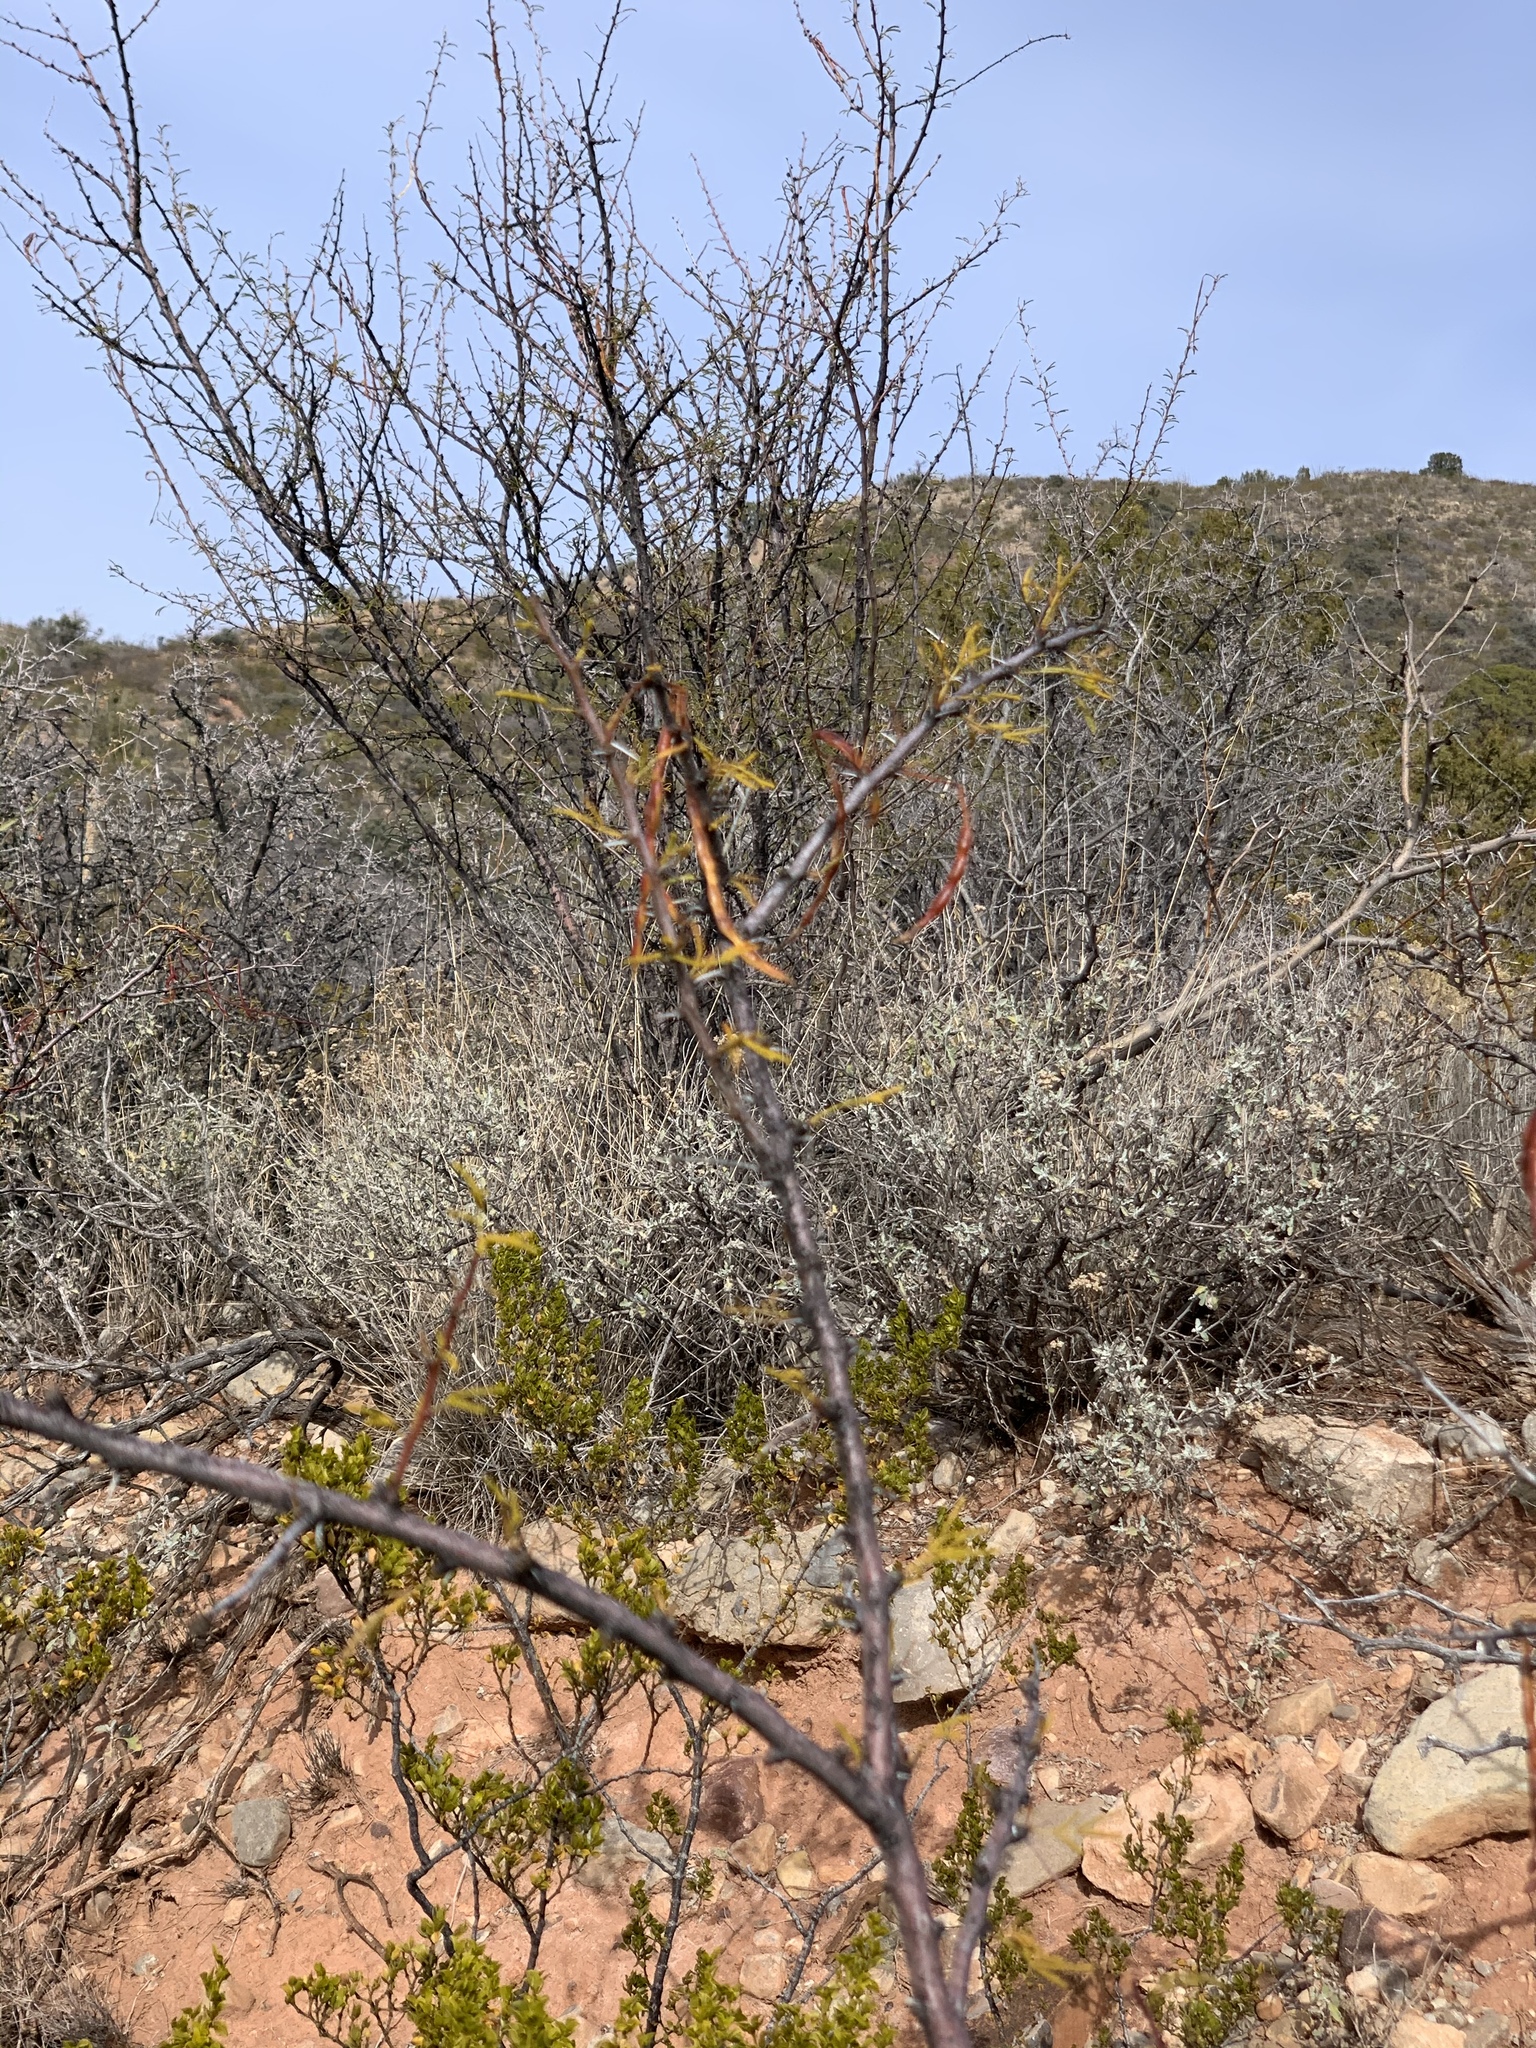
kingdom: Plantae
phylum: Tracheophyta
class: Magnoliopsida
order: Fabales
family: Fabaceae
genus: Vachellia
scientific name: Vachellia constricta
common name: Mescat acacia
